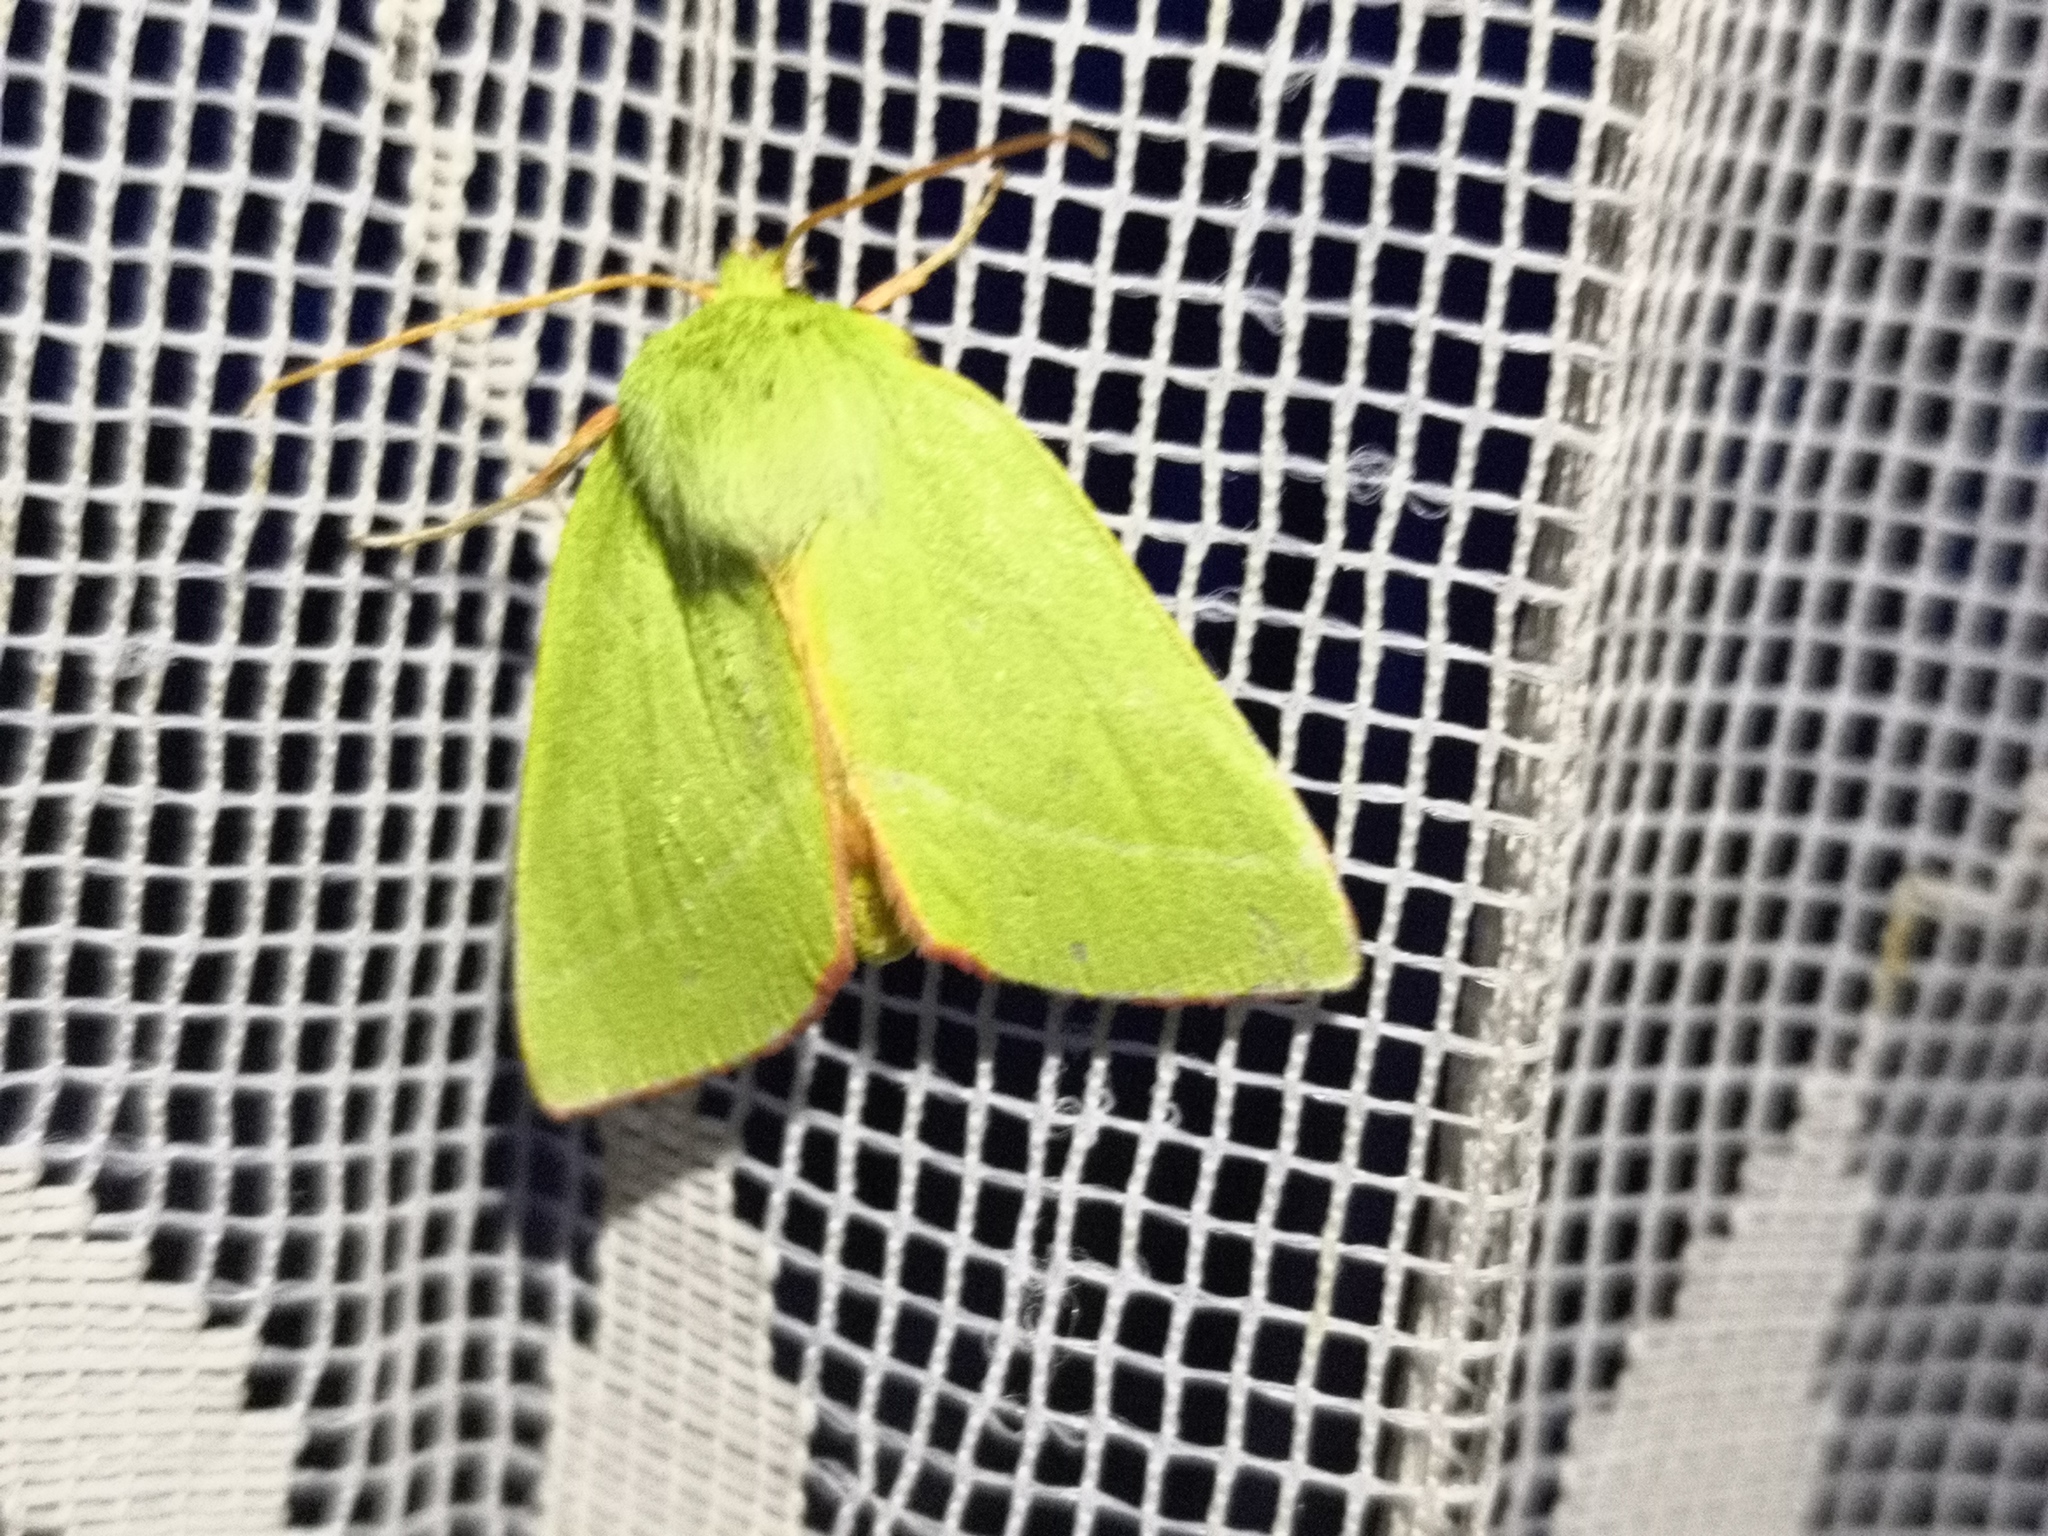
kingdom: Animalia
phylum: Arthropoda
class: Insecta
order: Lepidoptera
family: Nolidae
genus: Pseudoips
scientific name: Pseudoips prasinana
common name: Green silver-lines
